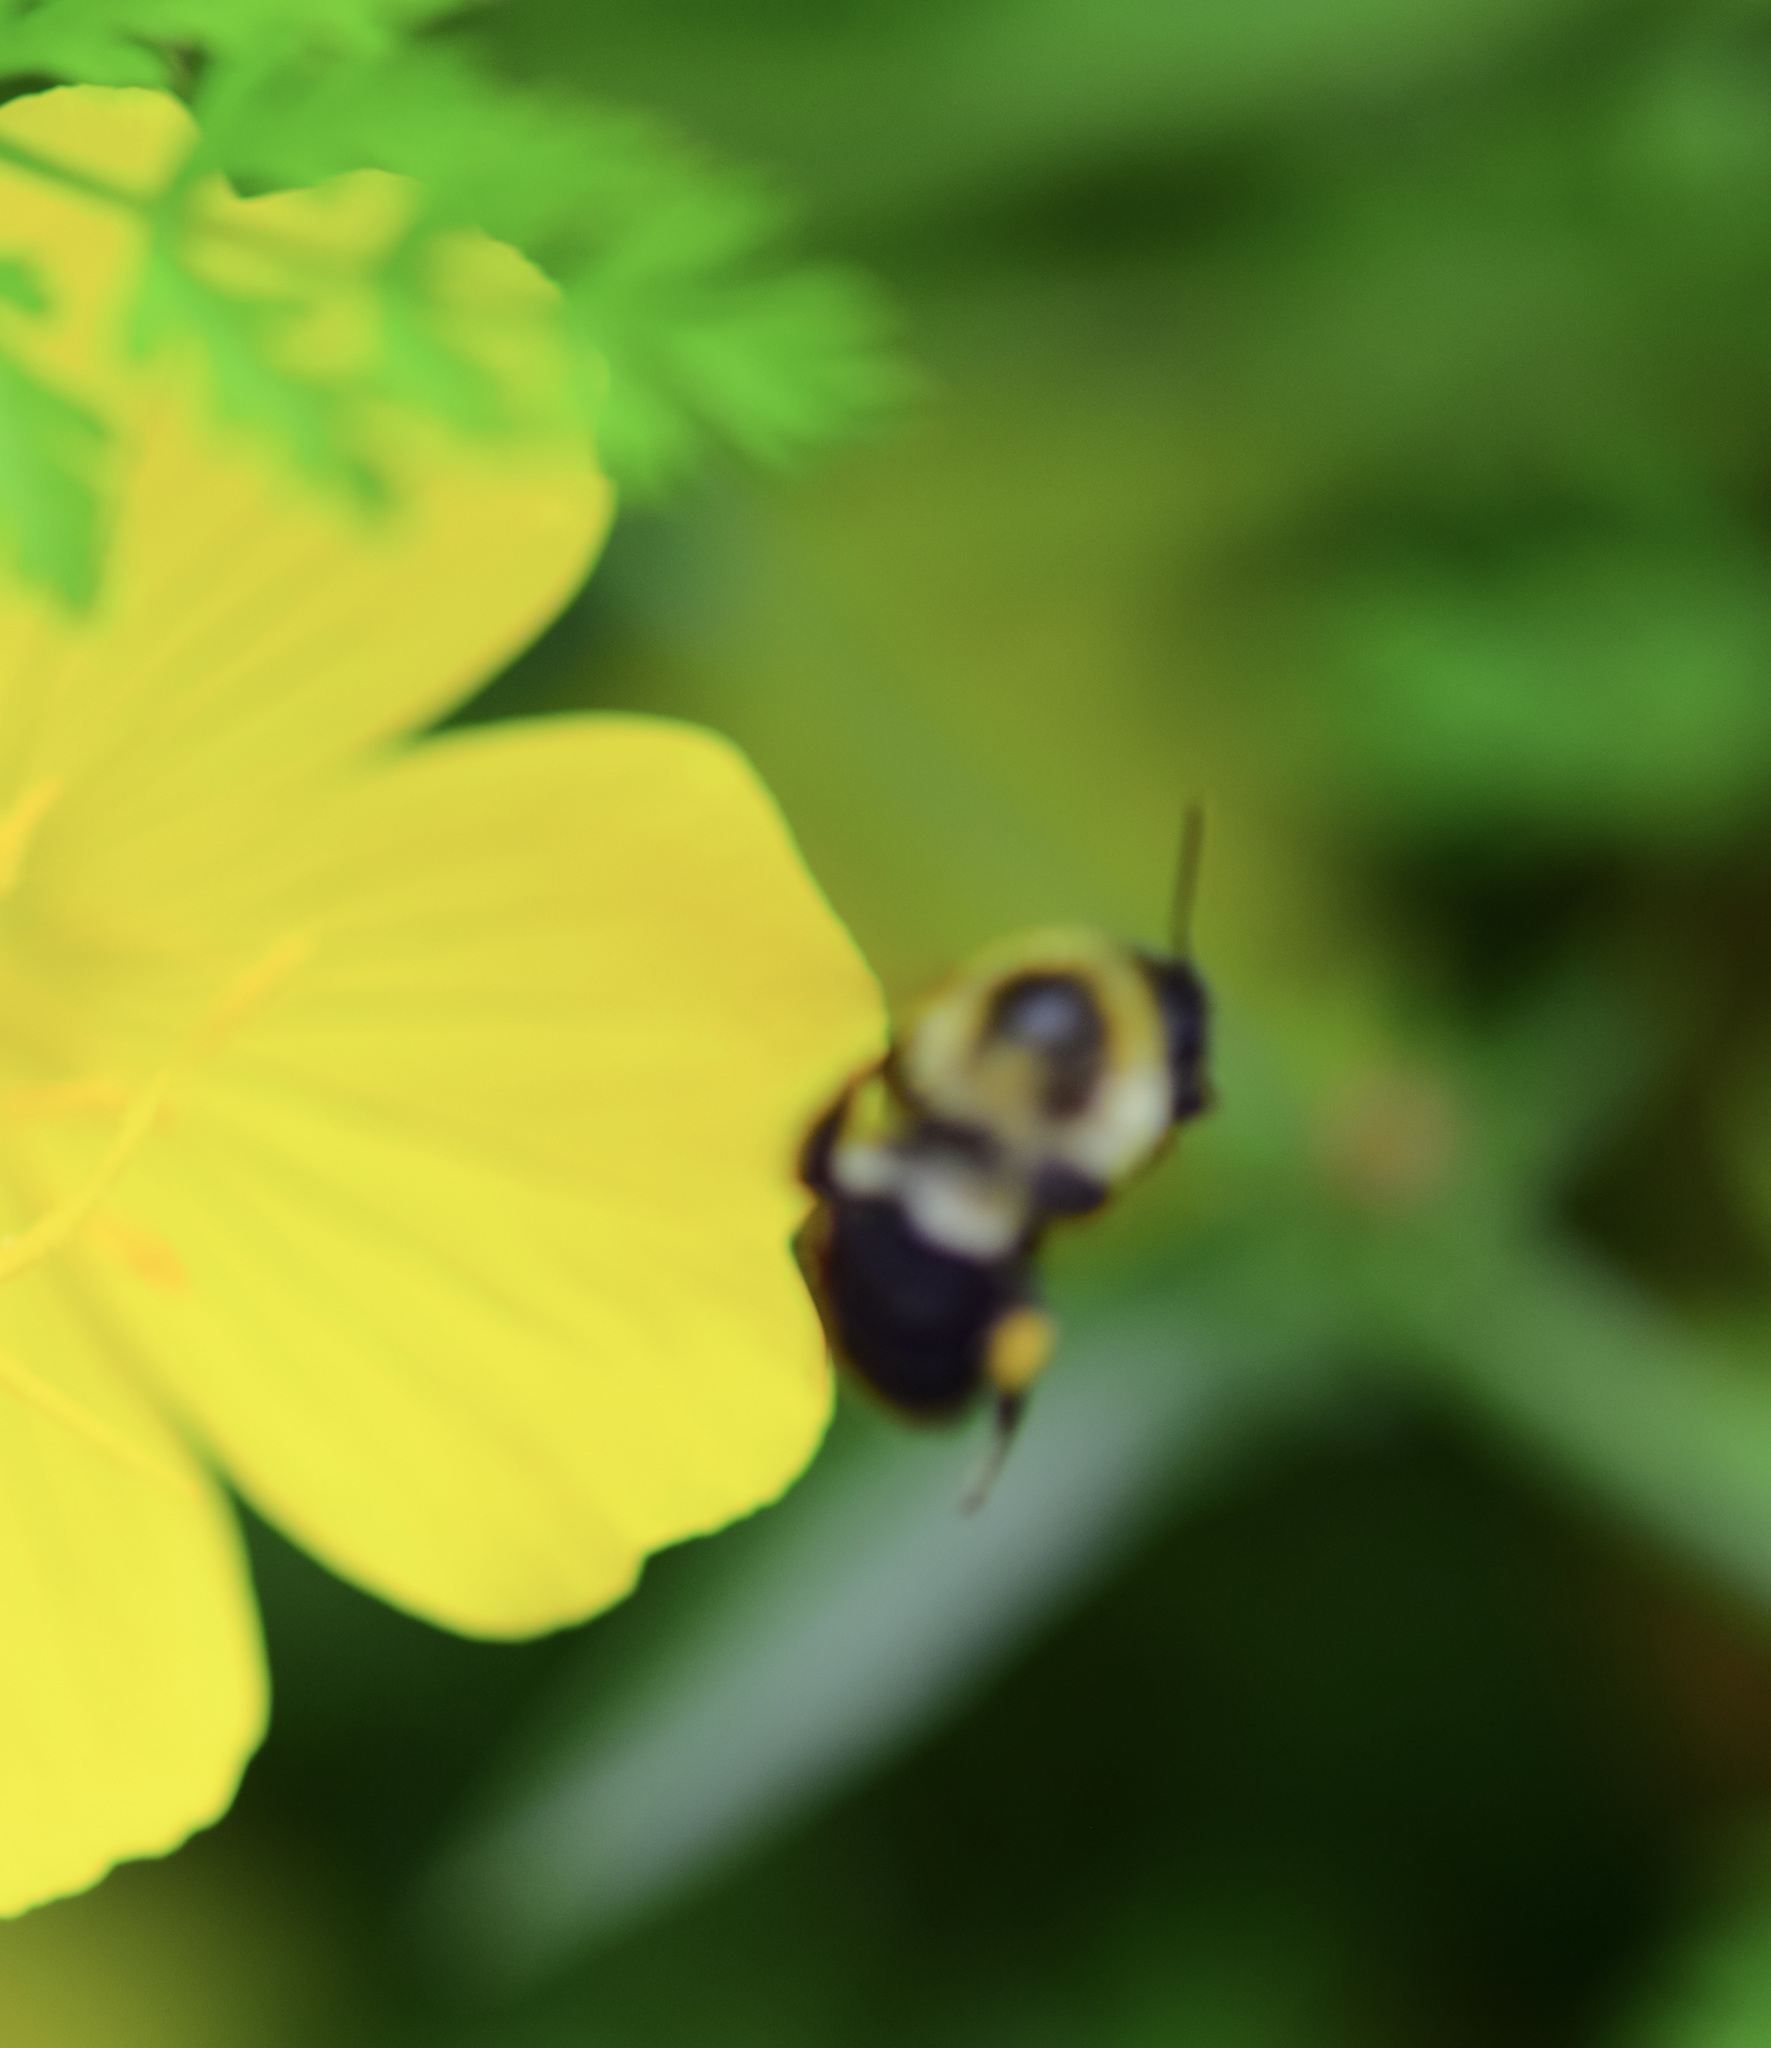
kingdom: Animalia
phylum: Arthropoda
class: Insecta
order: Hymenoptera
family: Apidae
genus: Bombus
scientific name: Bombus impatiens
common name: Common eastern bumble bee
